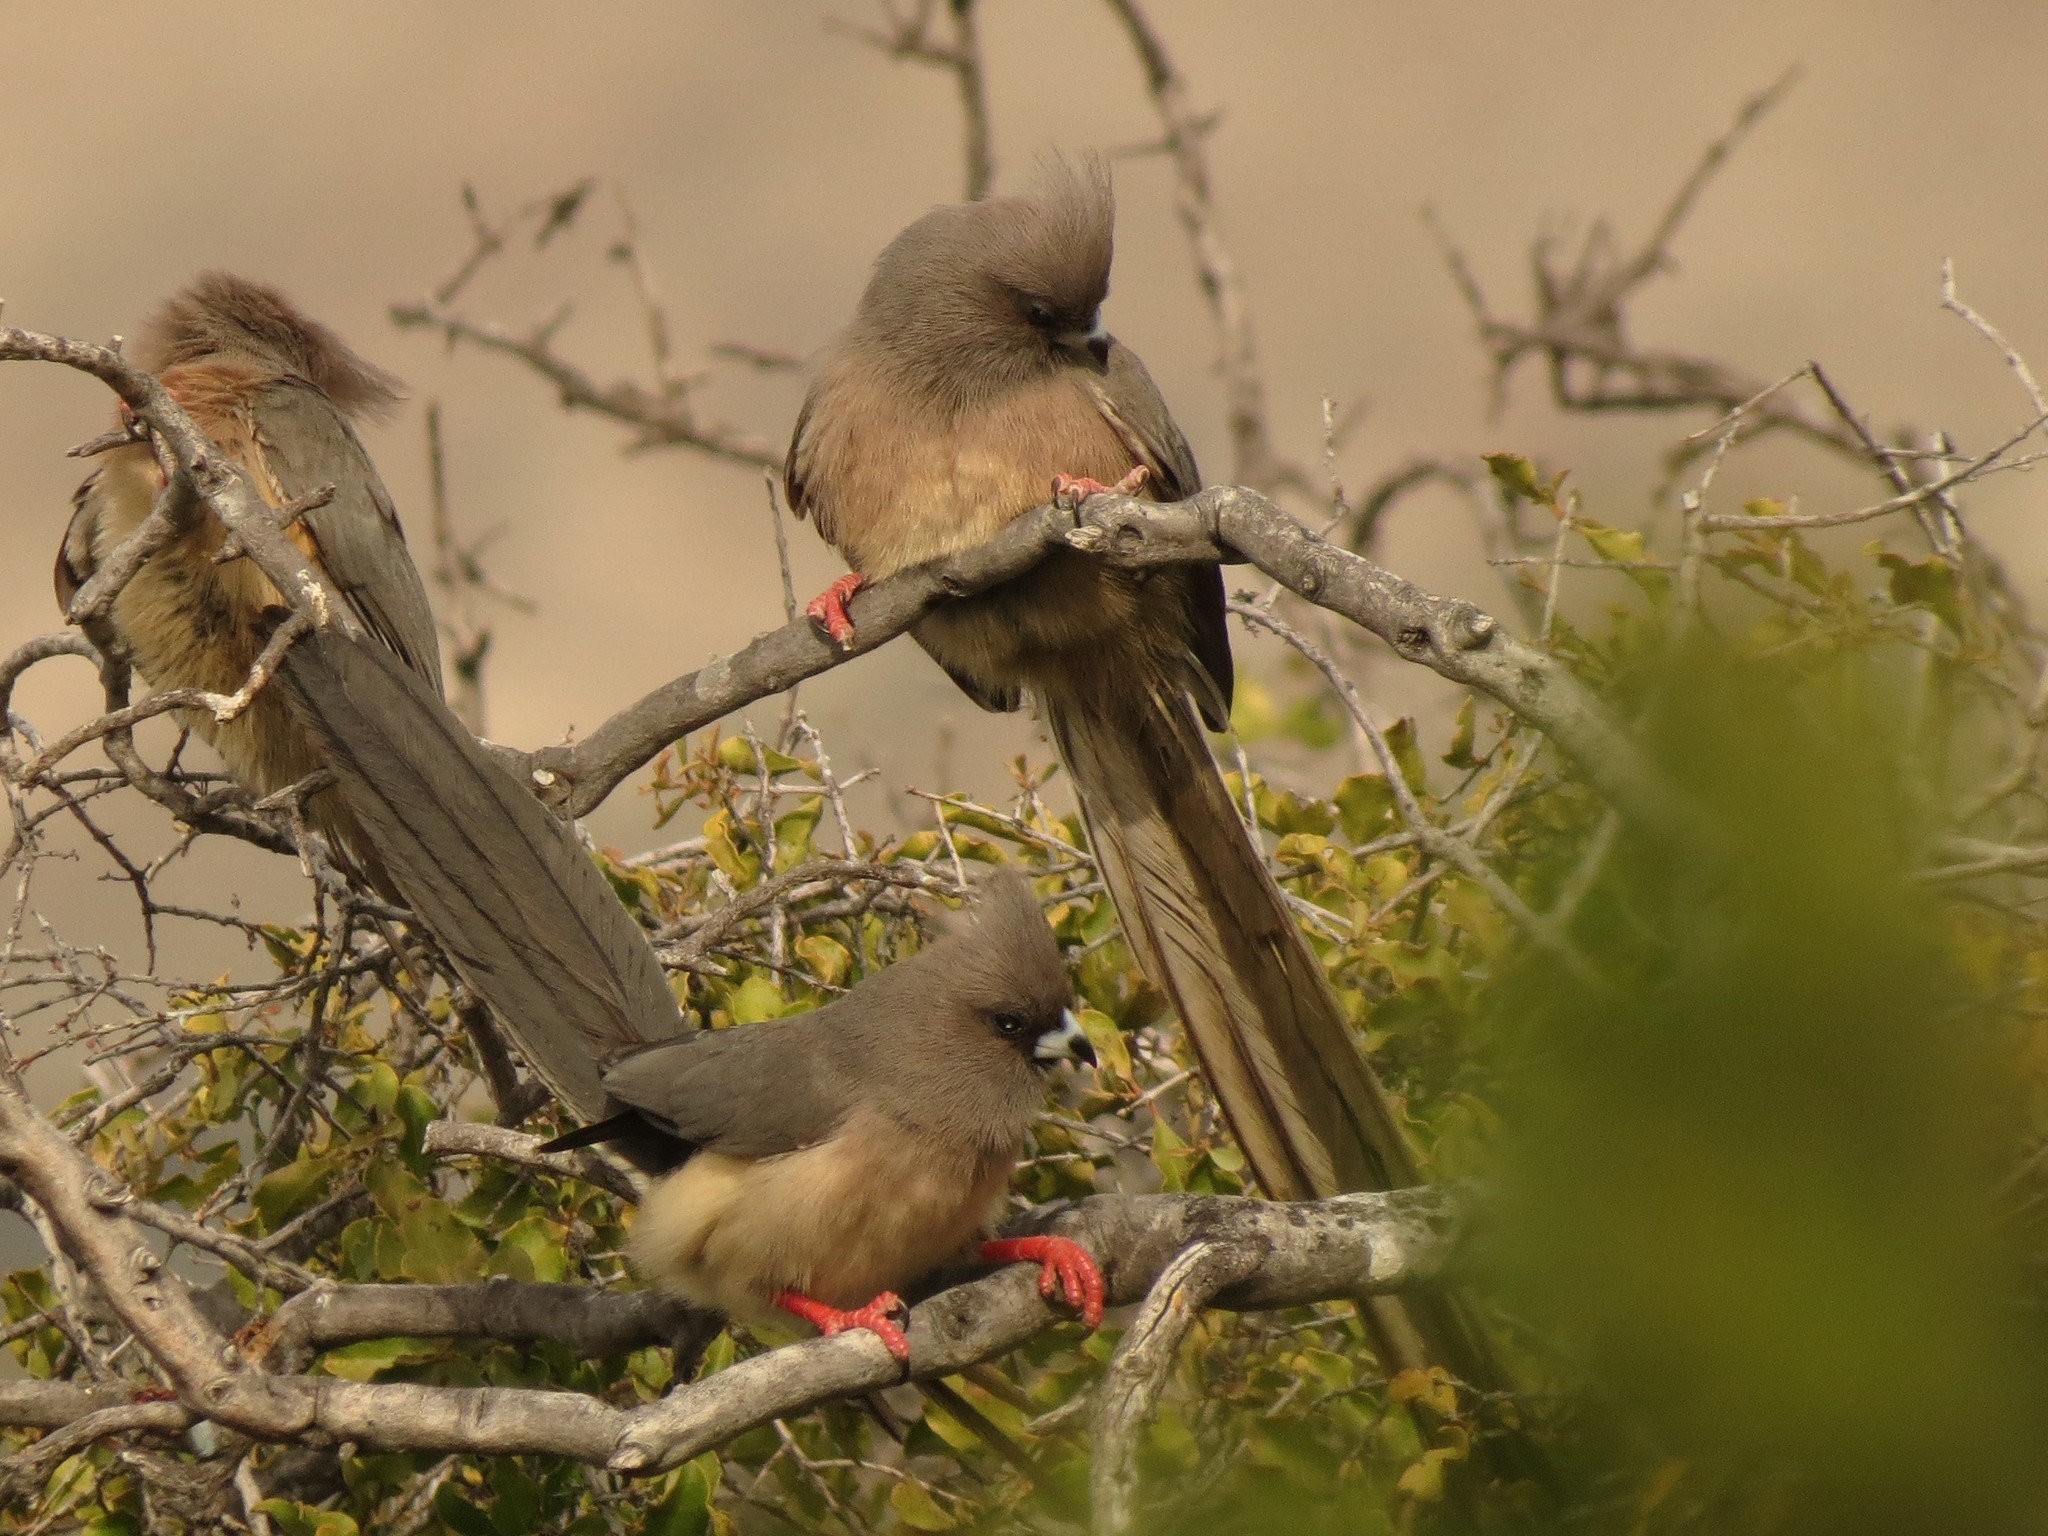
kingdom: Animalia
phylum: Chordata
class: Aves
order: Coliiformes
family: Coliidae
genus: Colius
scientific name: Colius colius
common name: White-backed mousebird
